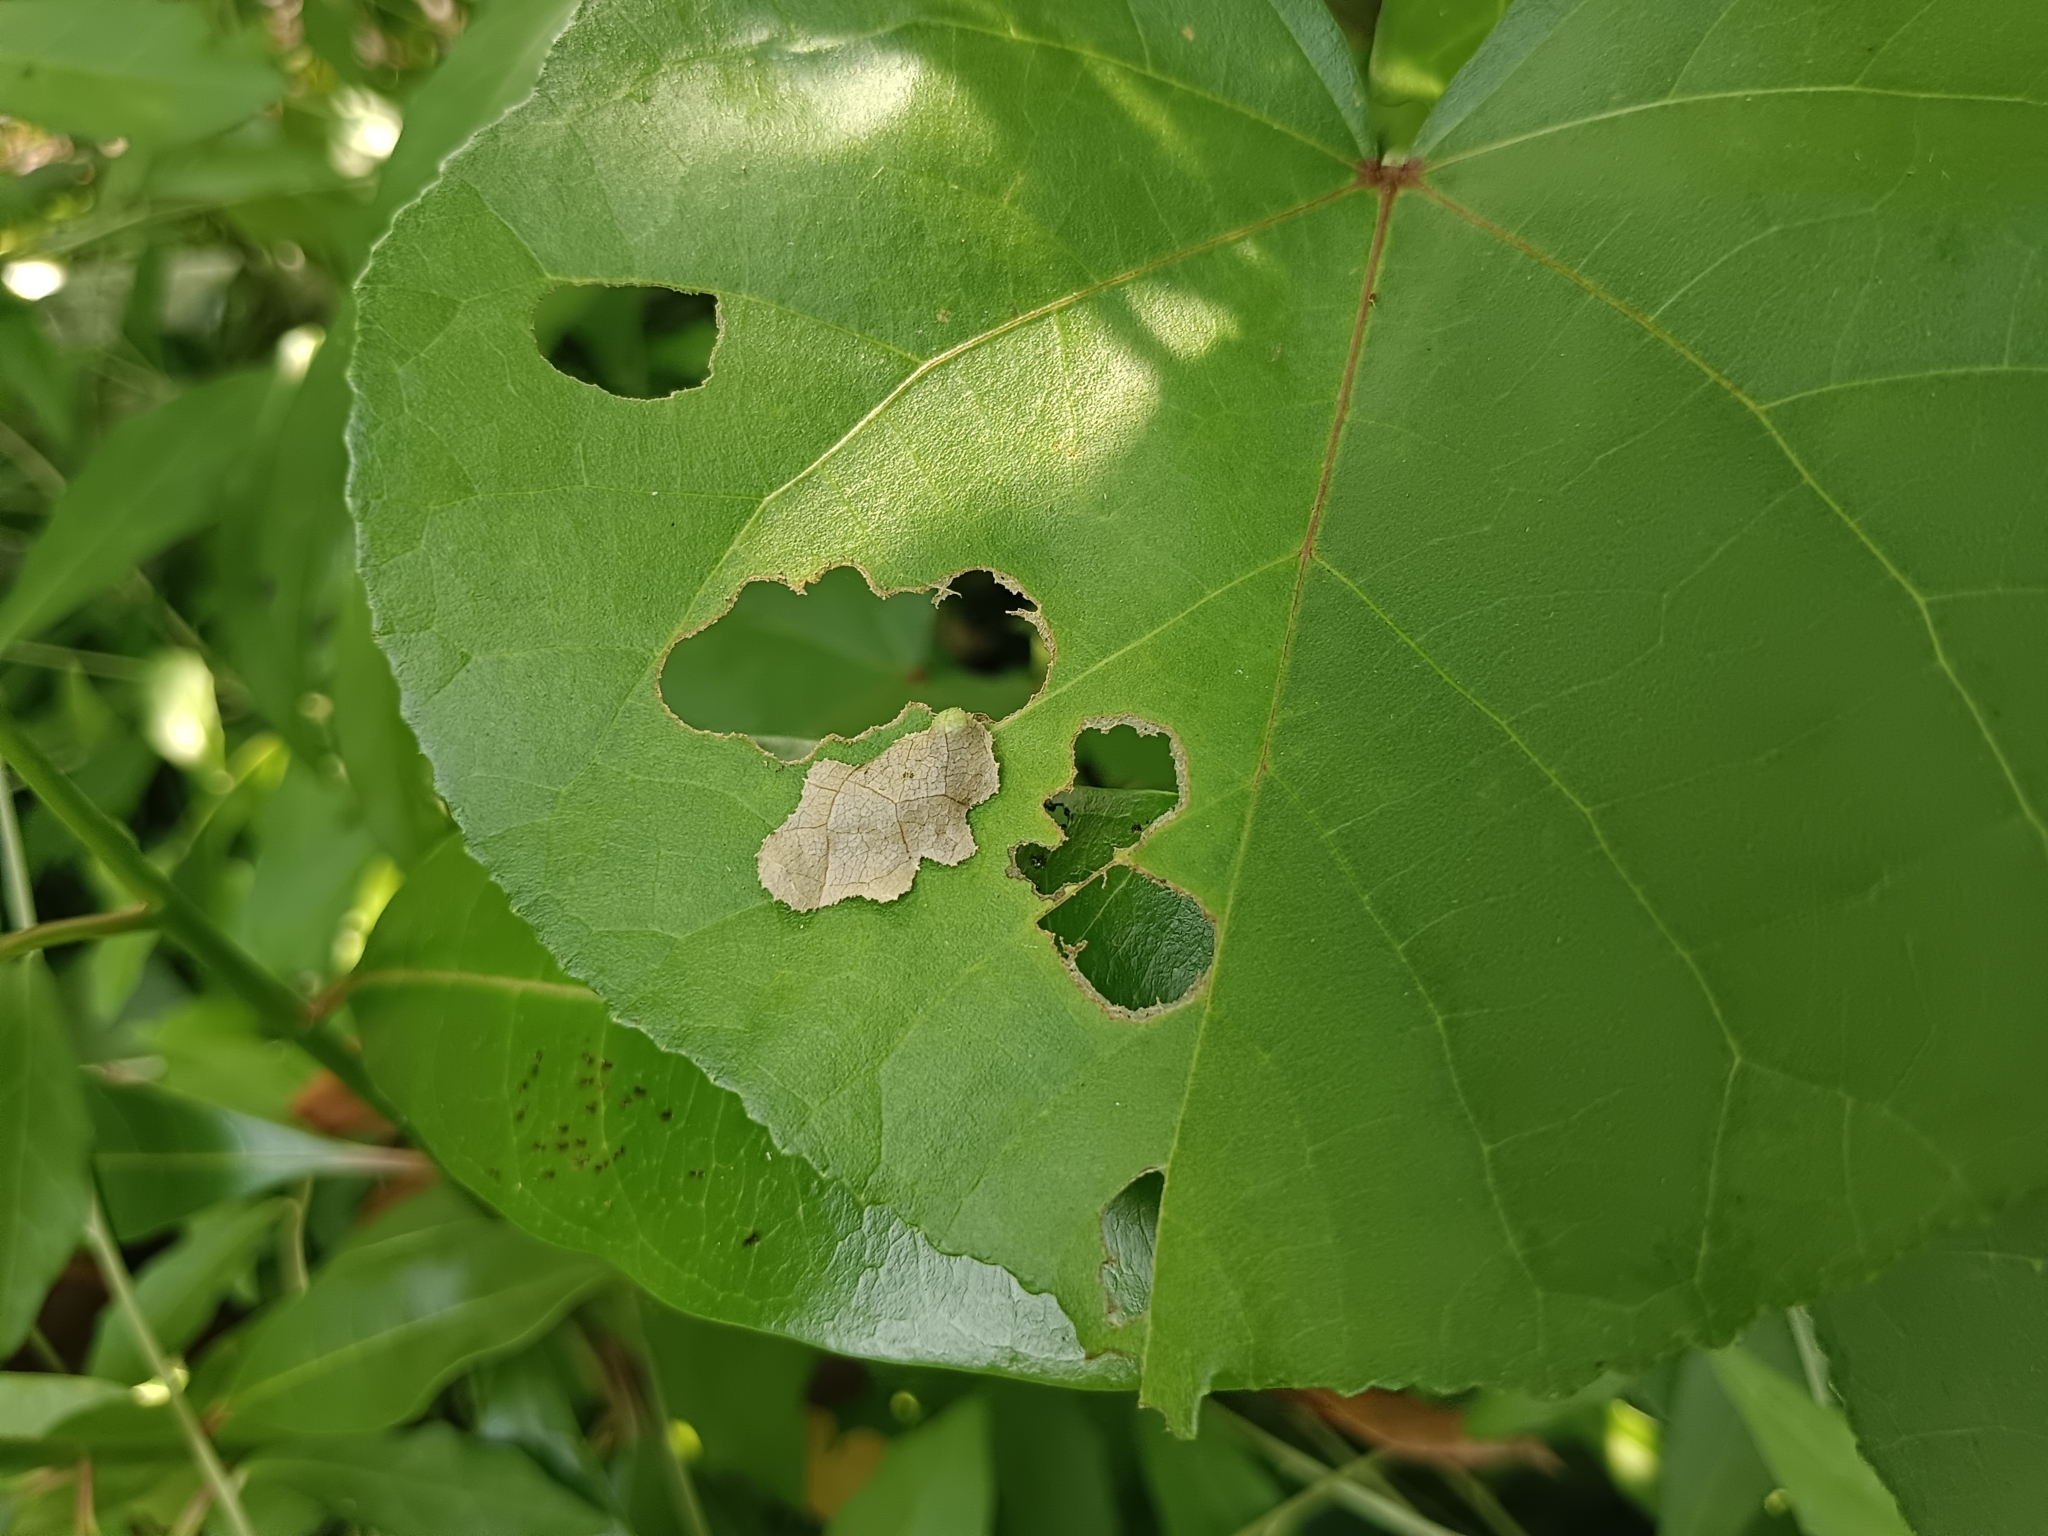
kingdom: Animalia
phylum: Arthropoda
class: Insecta
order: Lepidoptera
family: Hesperiidae
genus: Coladenia
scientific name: Coladenia
